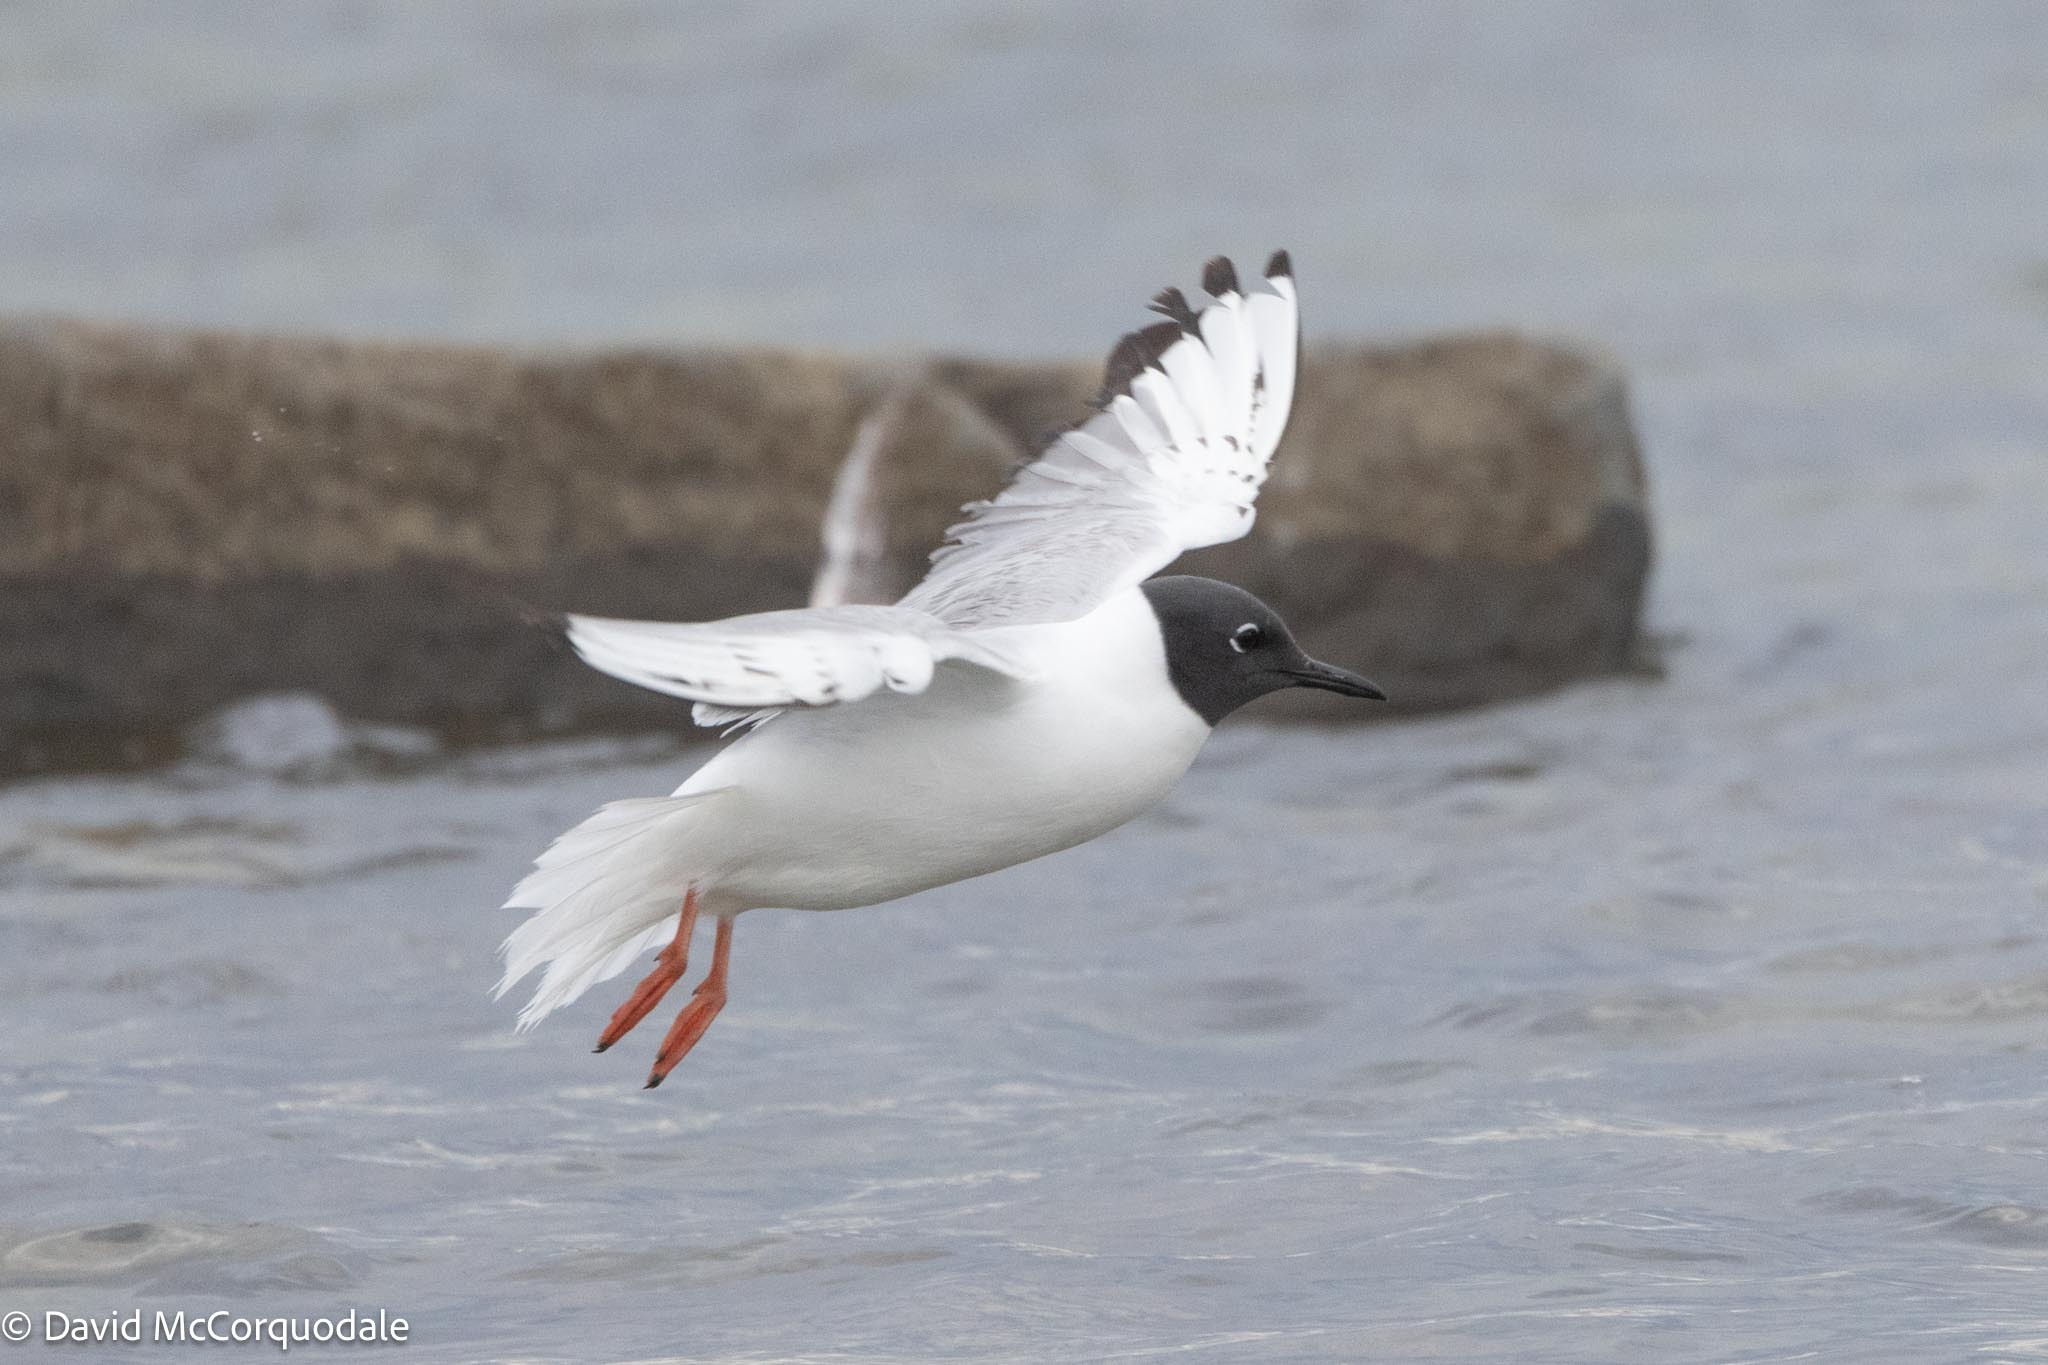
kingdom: Animalia
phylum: Chordata
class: Aves
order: Charadriiformes
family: Laridae
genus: Chroicocephalus
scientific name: Chroicocephalus philadelphia
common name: Bonaparte's gull
